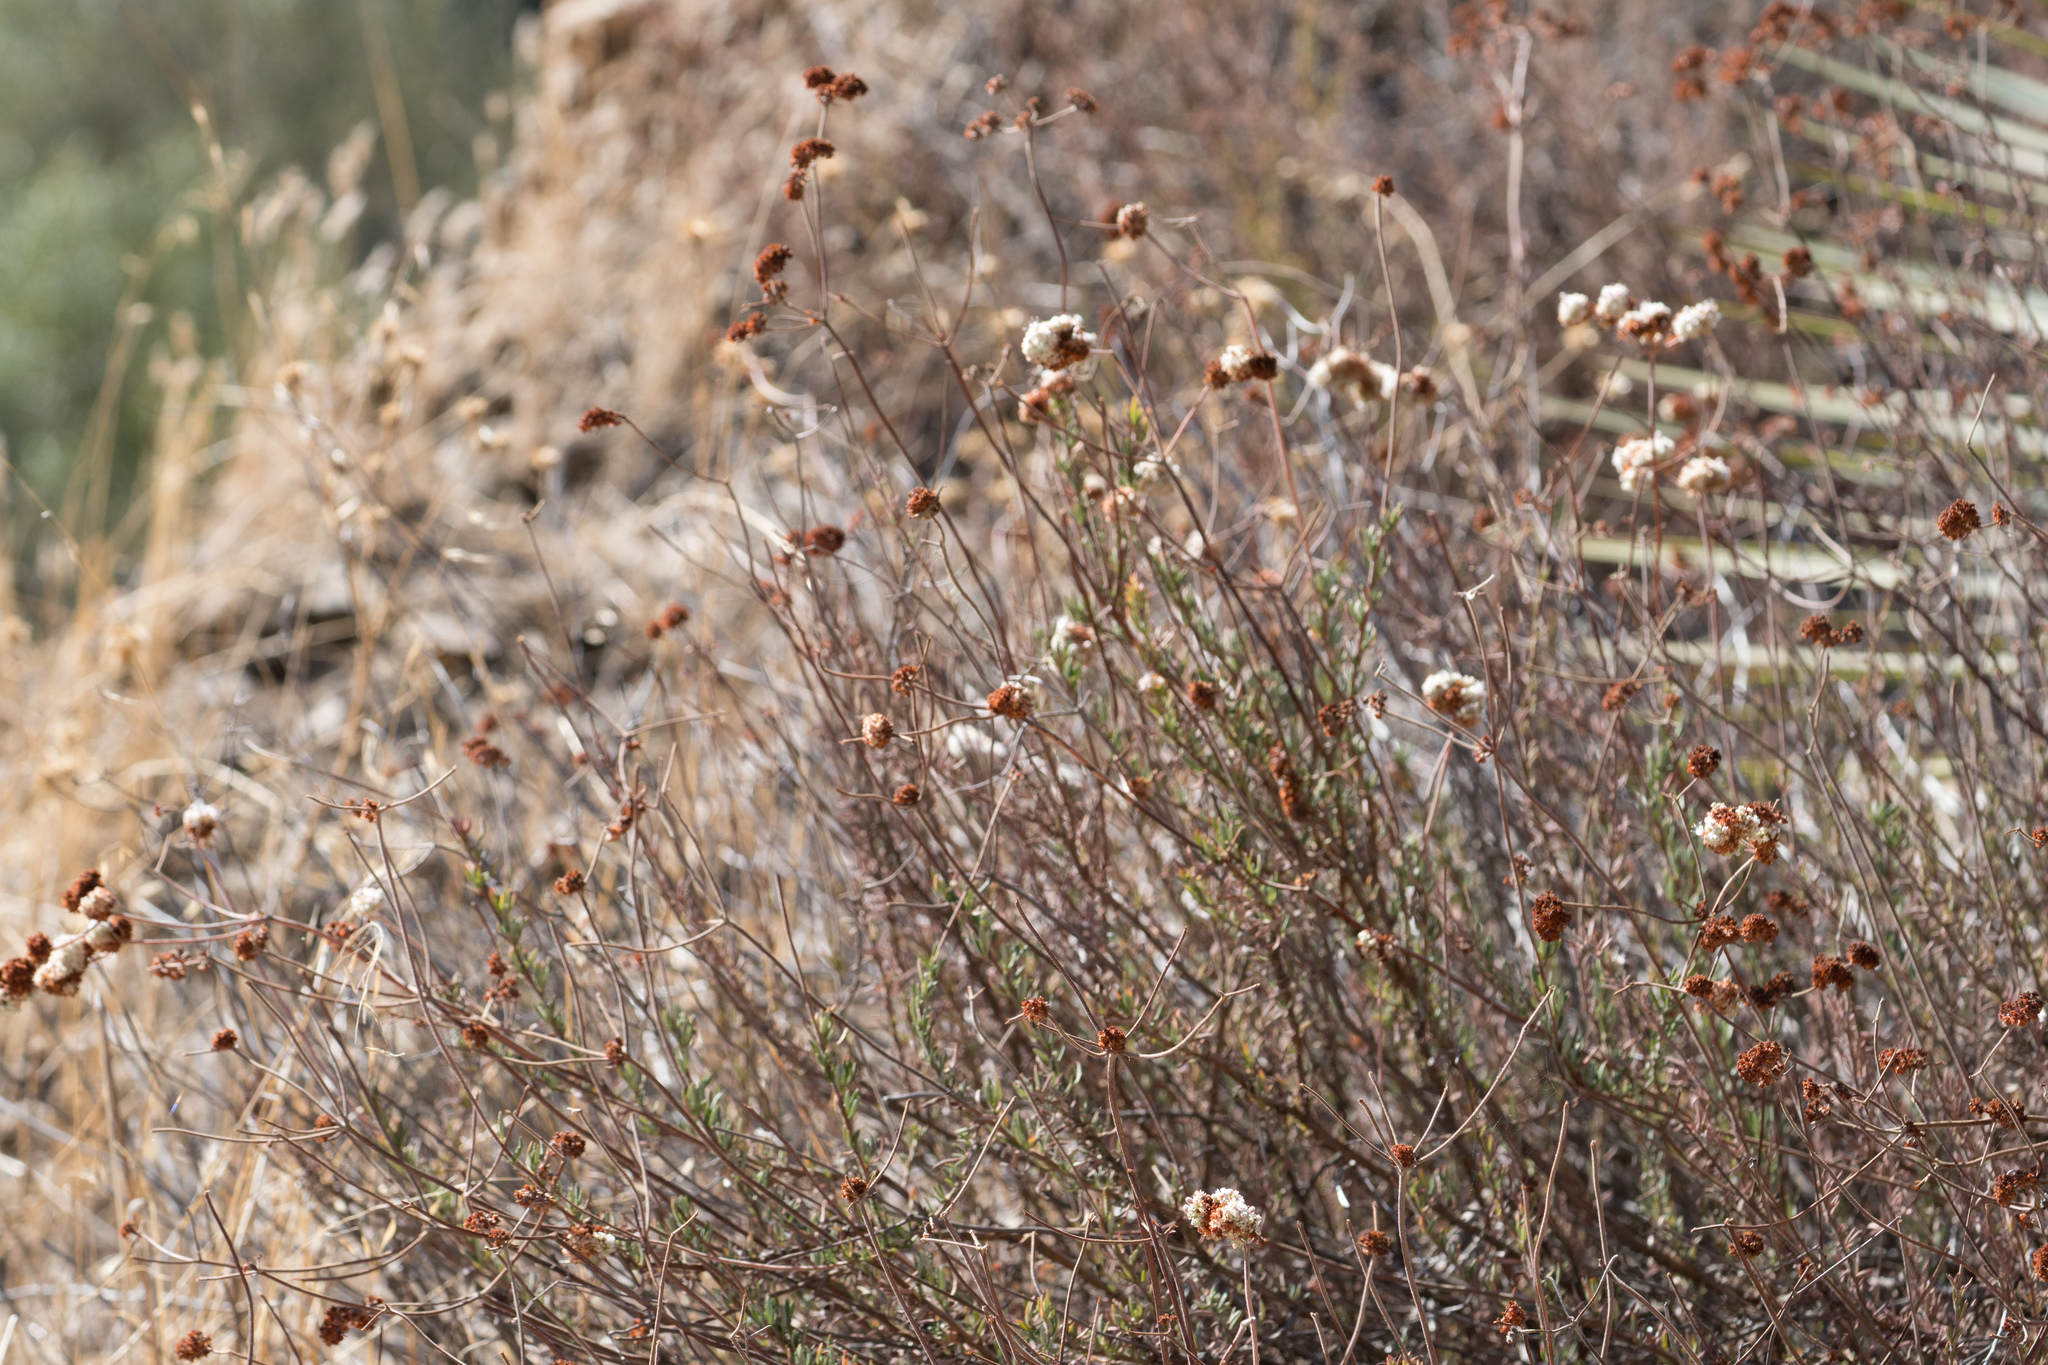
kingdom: Plantae
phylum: Tracheophyta
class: Magnoliopsida
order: Caryophyllales
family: Polygonaceae
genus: Eriogonum
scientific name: Eriogonum fasciculatum
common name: California wild buckwheat
